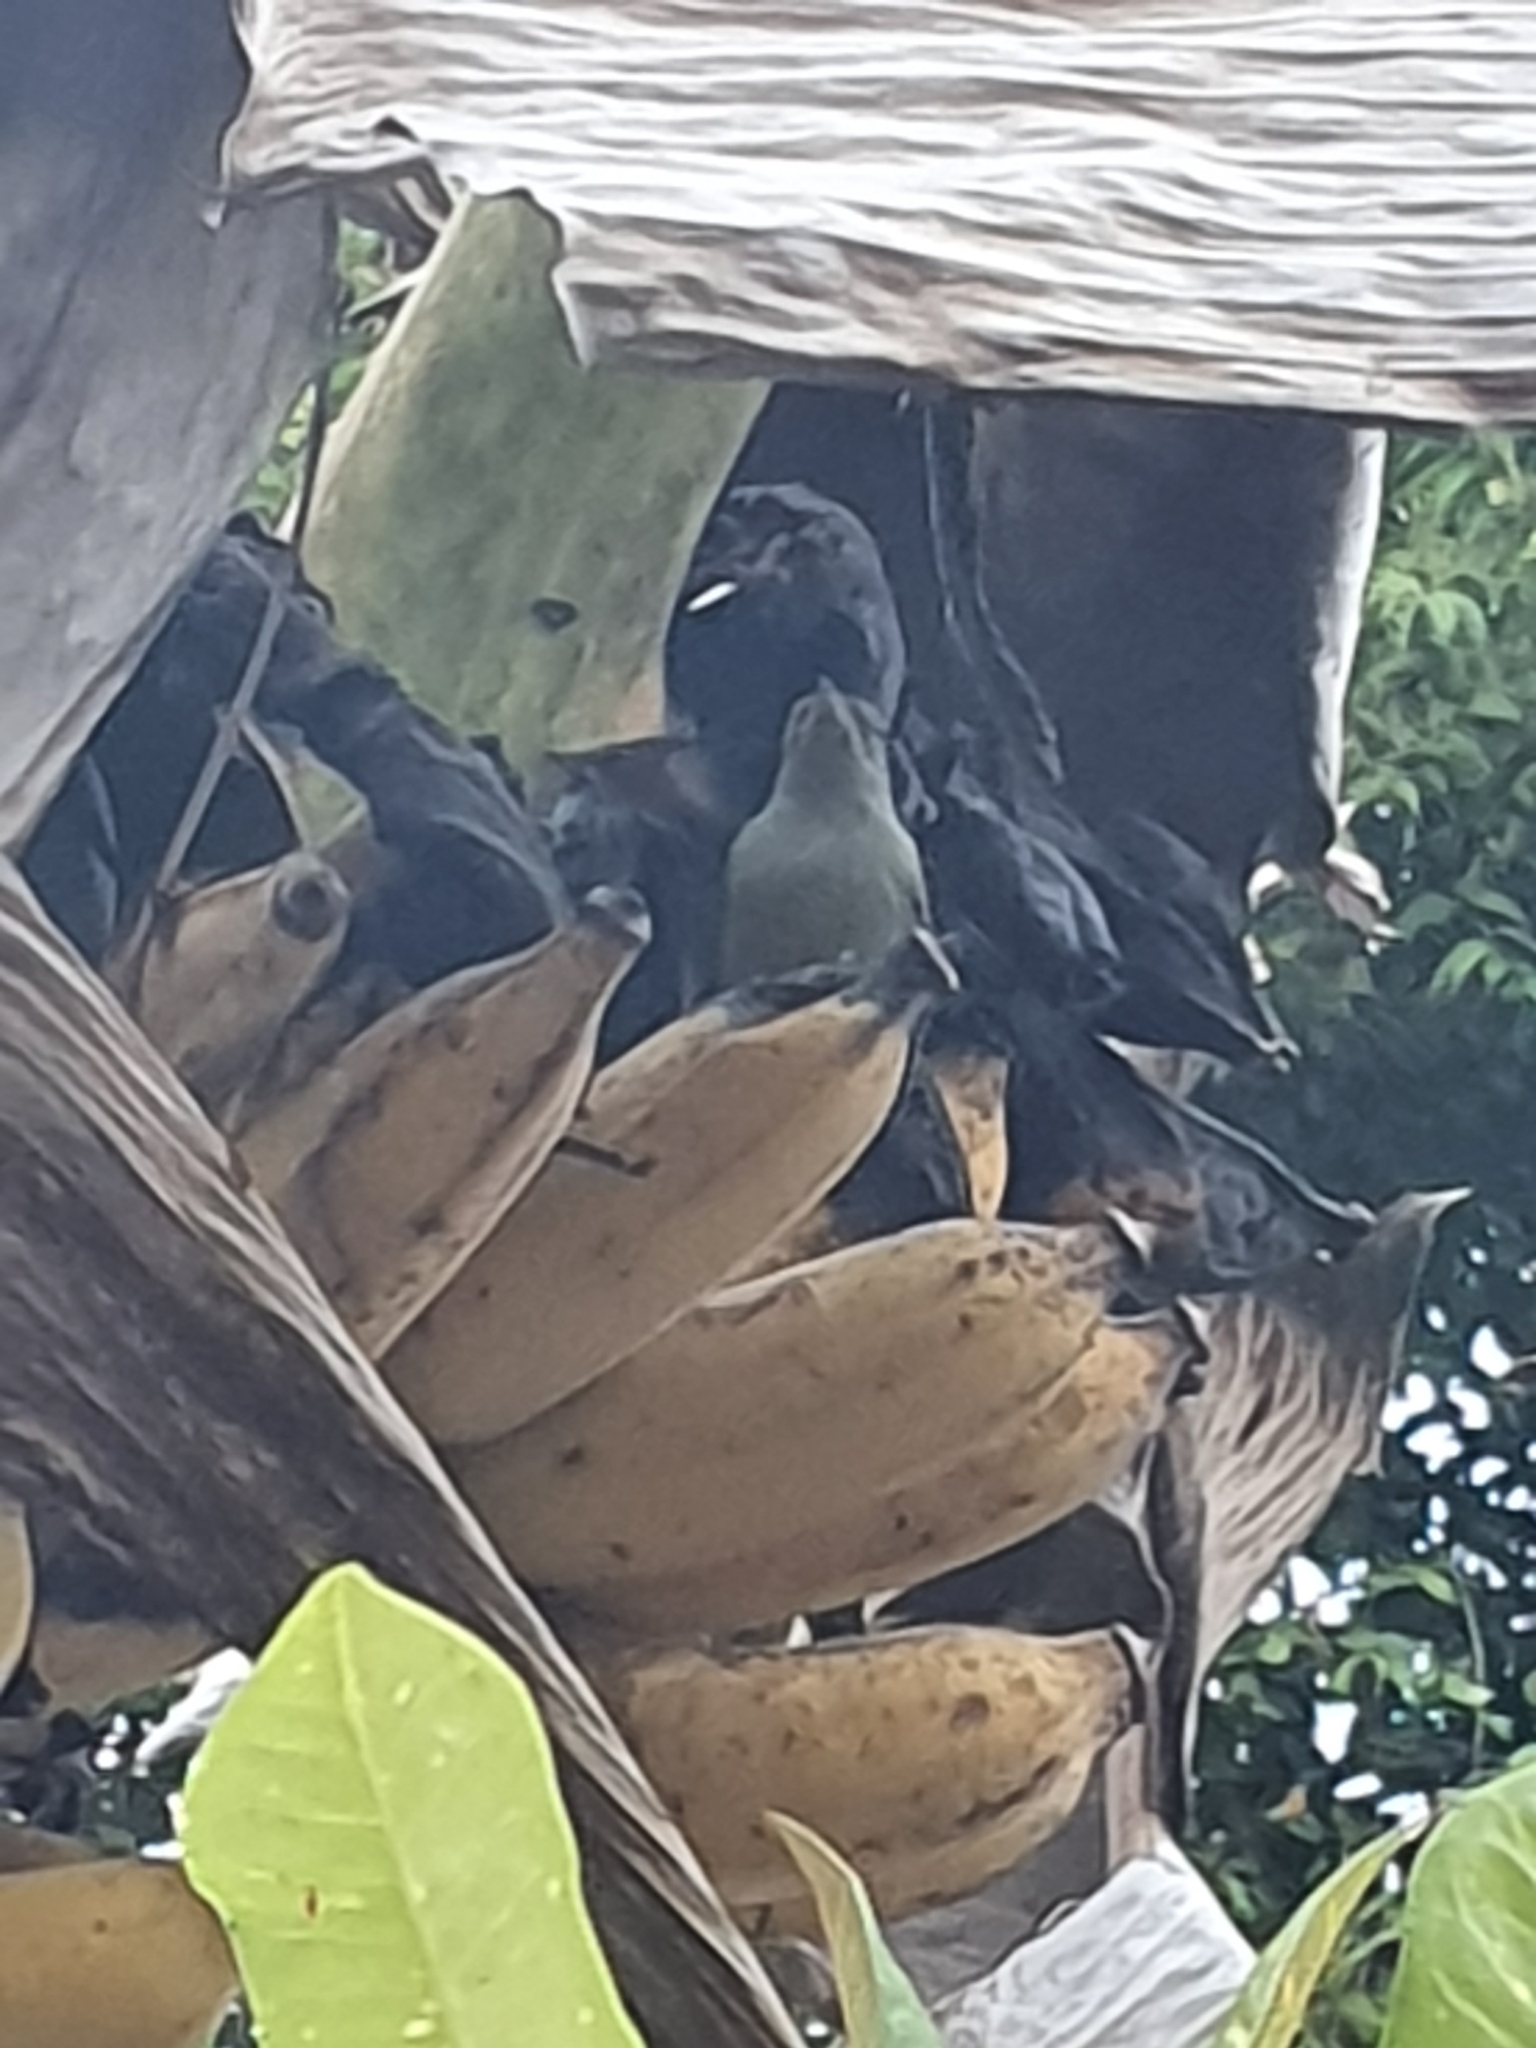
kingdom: Animalia
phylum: Chordata
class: Aves
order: Passeriformes
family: Dicaeidae
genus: Dicaeum
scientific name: Dicaeum
